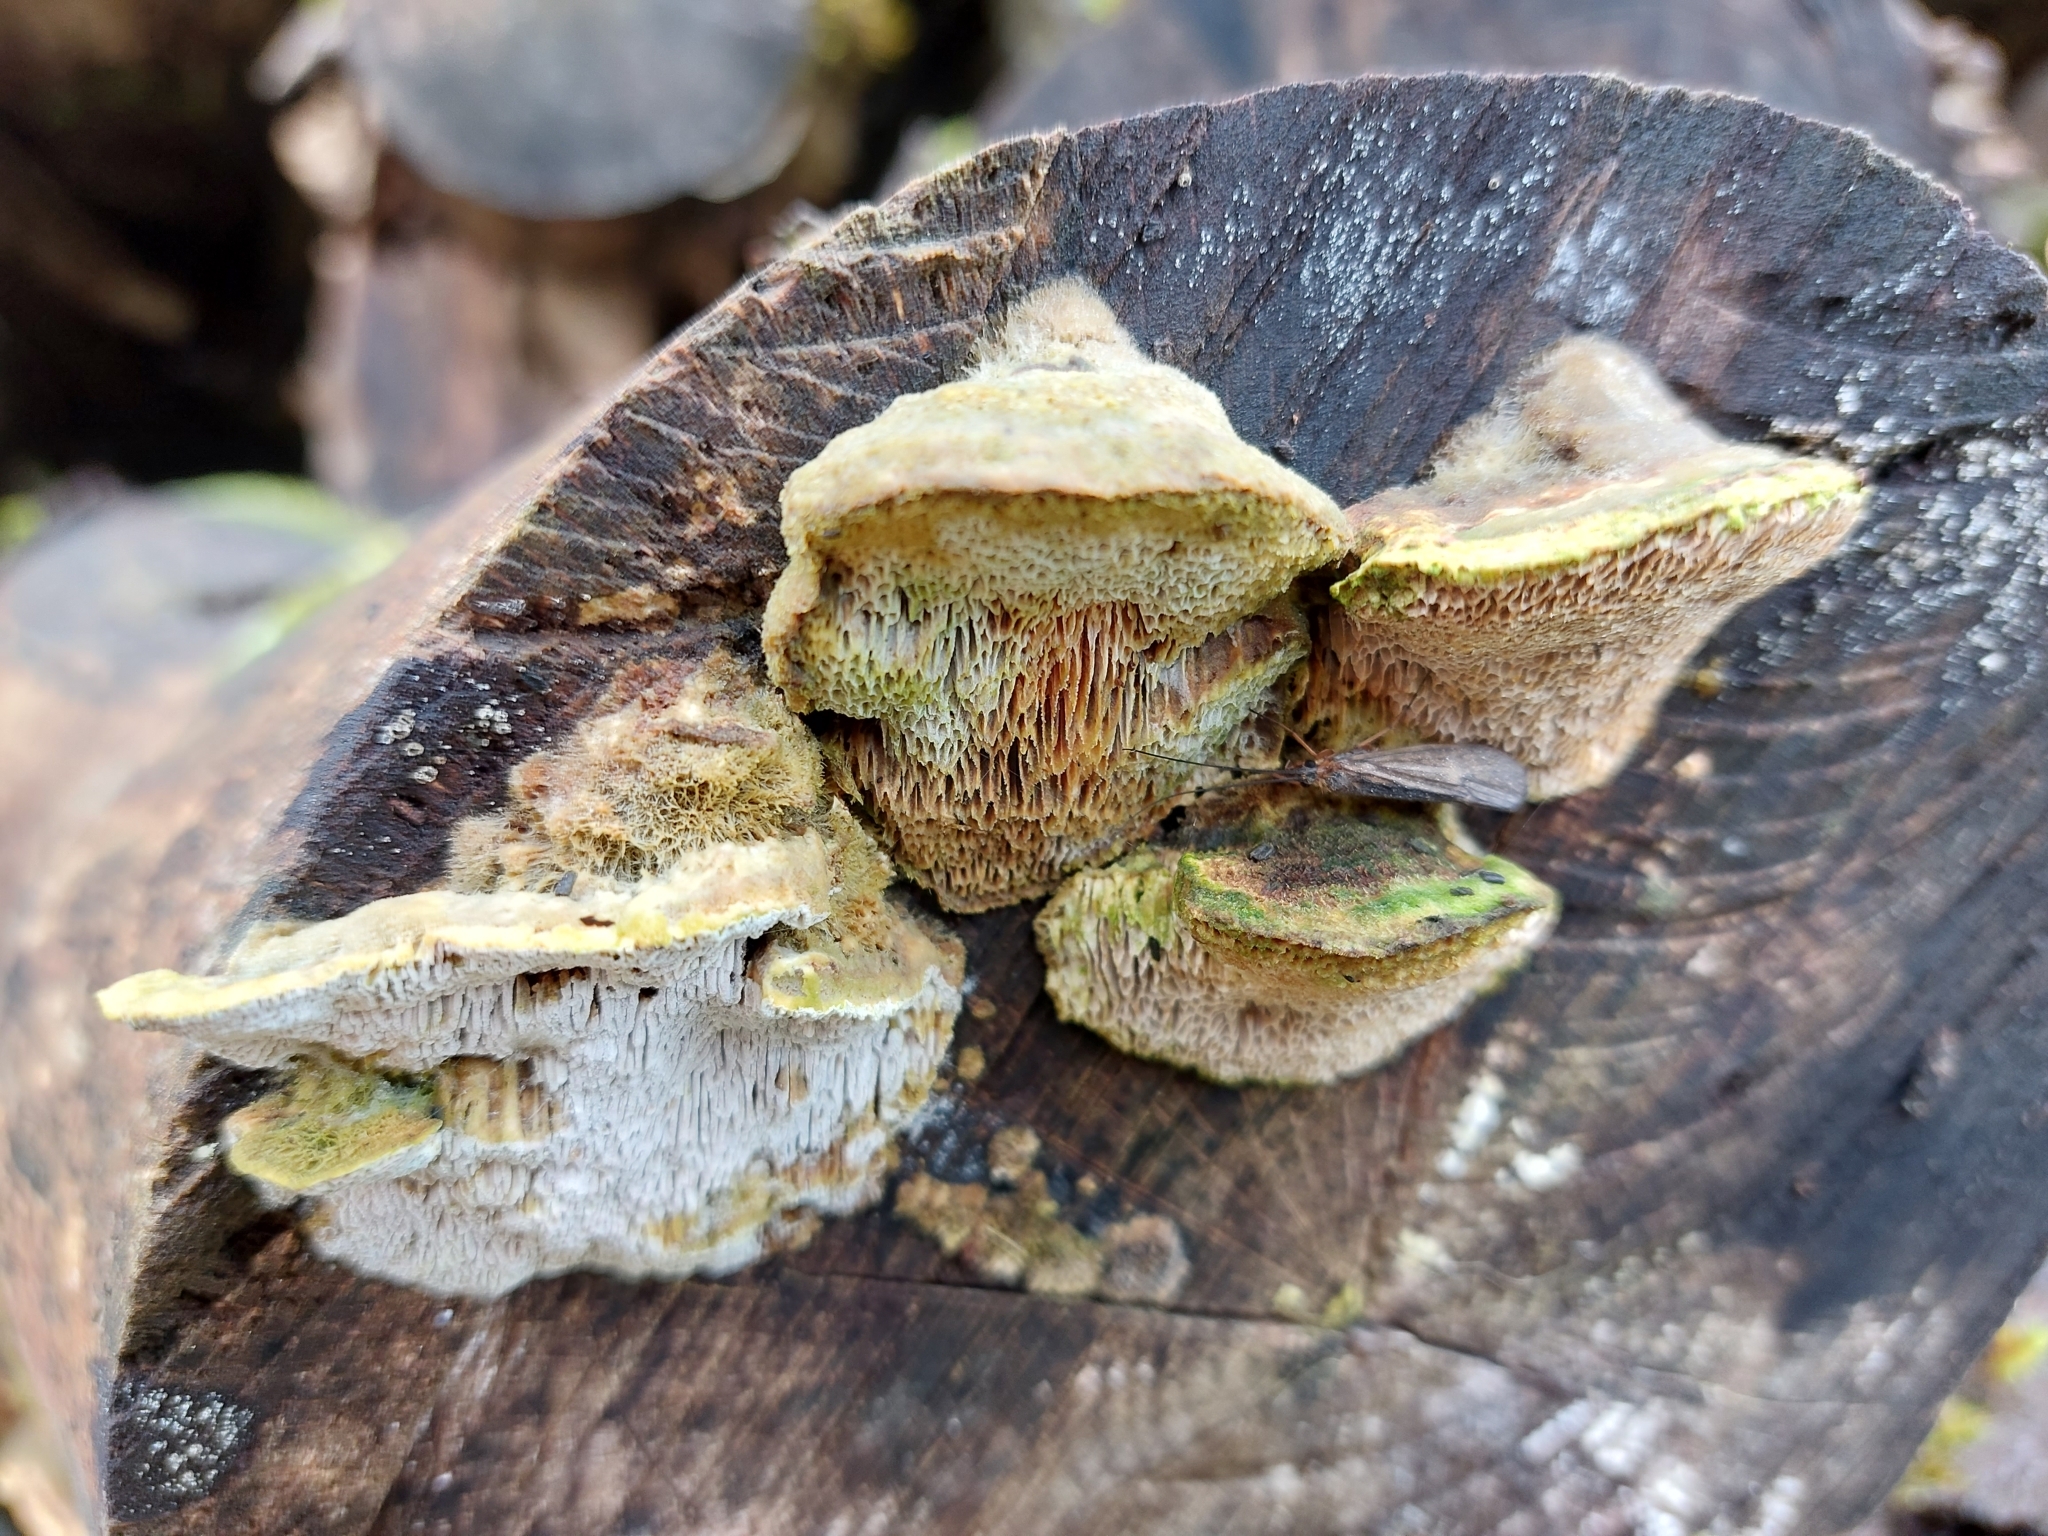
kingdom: Fungi
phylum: Basidiomycota
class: Agaricomycetes
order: Polyporales
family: Fomitopsidaceae
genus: Fomitopsis
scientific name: Fomitopsis
